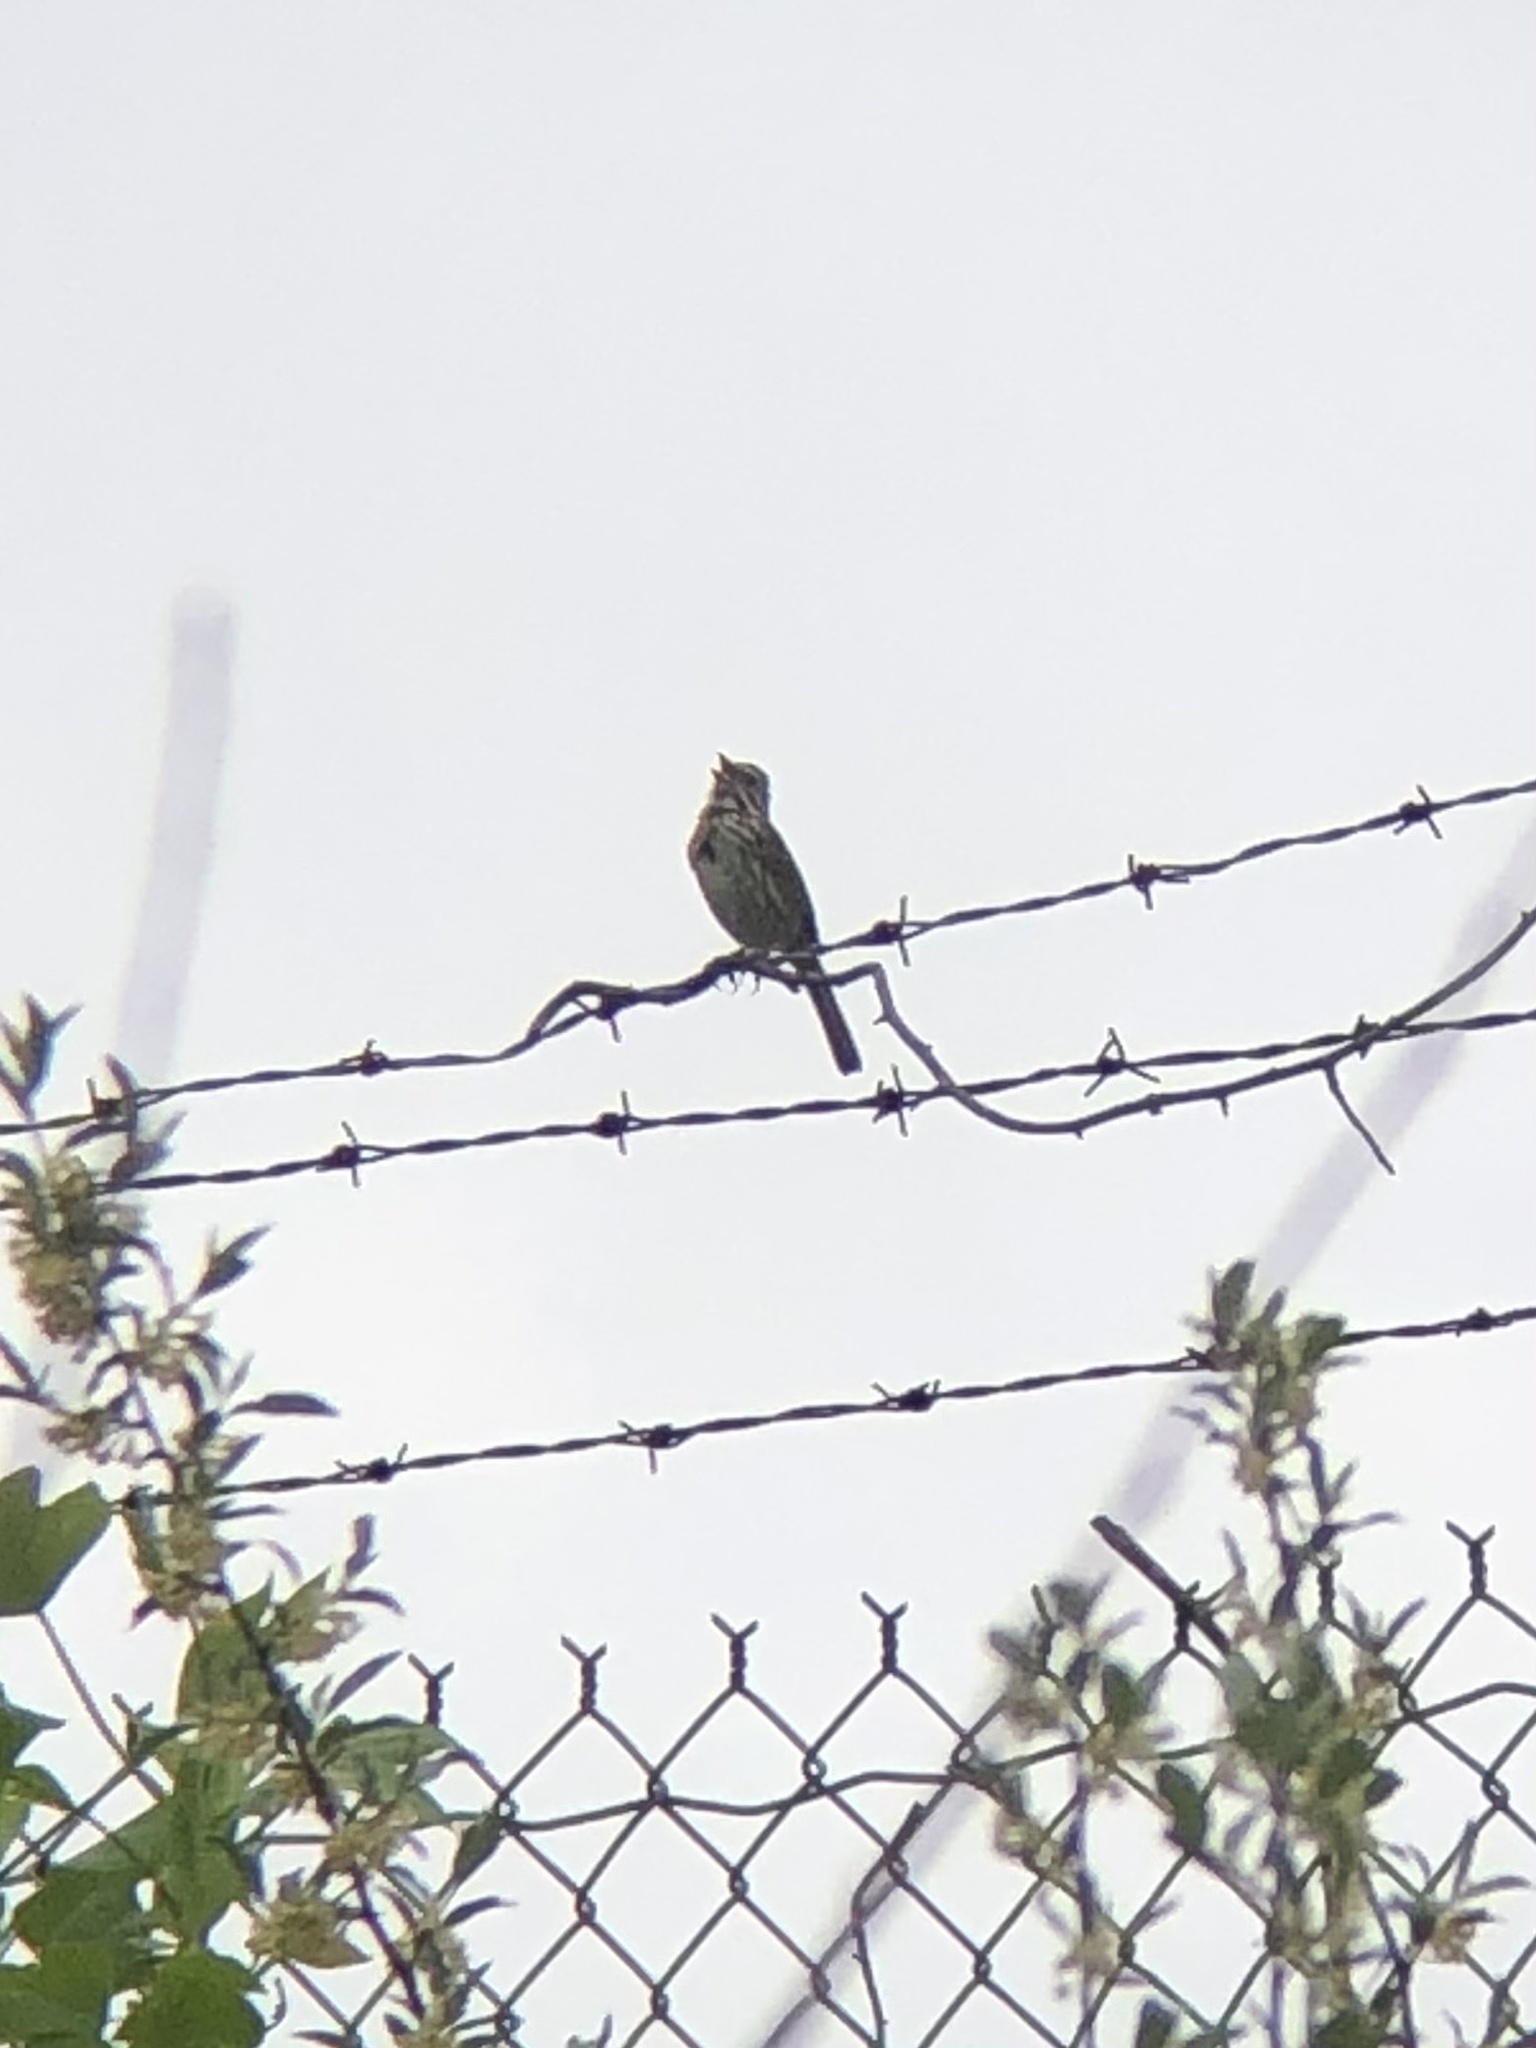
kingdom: Animalia
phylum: Chordata
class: Aves
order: Passeriformes
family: Passerellidae
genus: Melospiza
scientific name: Melospiza melodia
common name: Song sparrow
